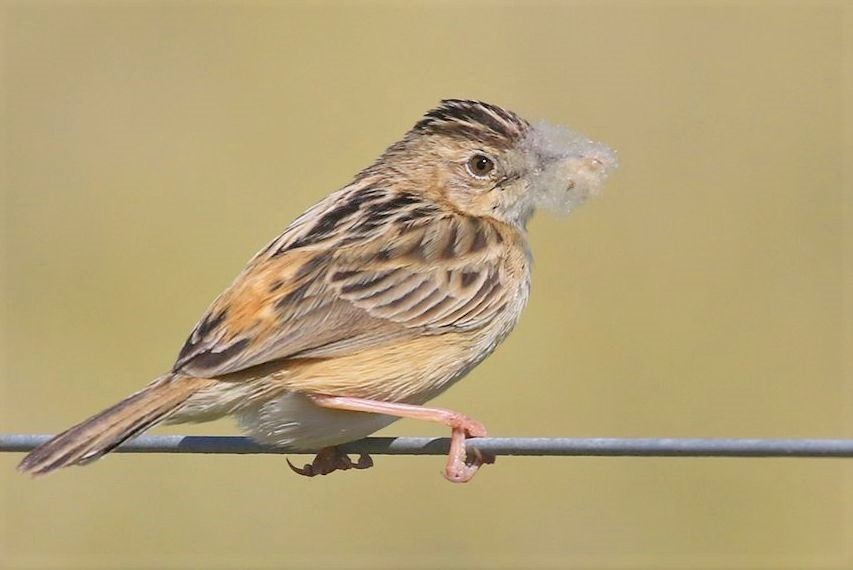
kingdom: Animalia
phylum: Chordata
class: Aves
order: Passeriformes
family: Cisticolidae
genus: Cisticola
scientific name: Cisticola juncidis
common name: Zitting cisticola
